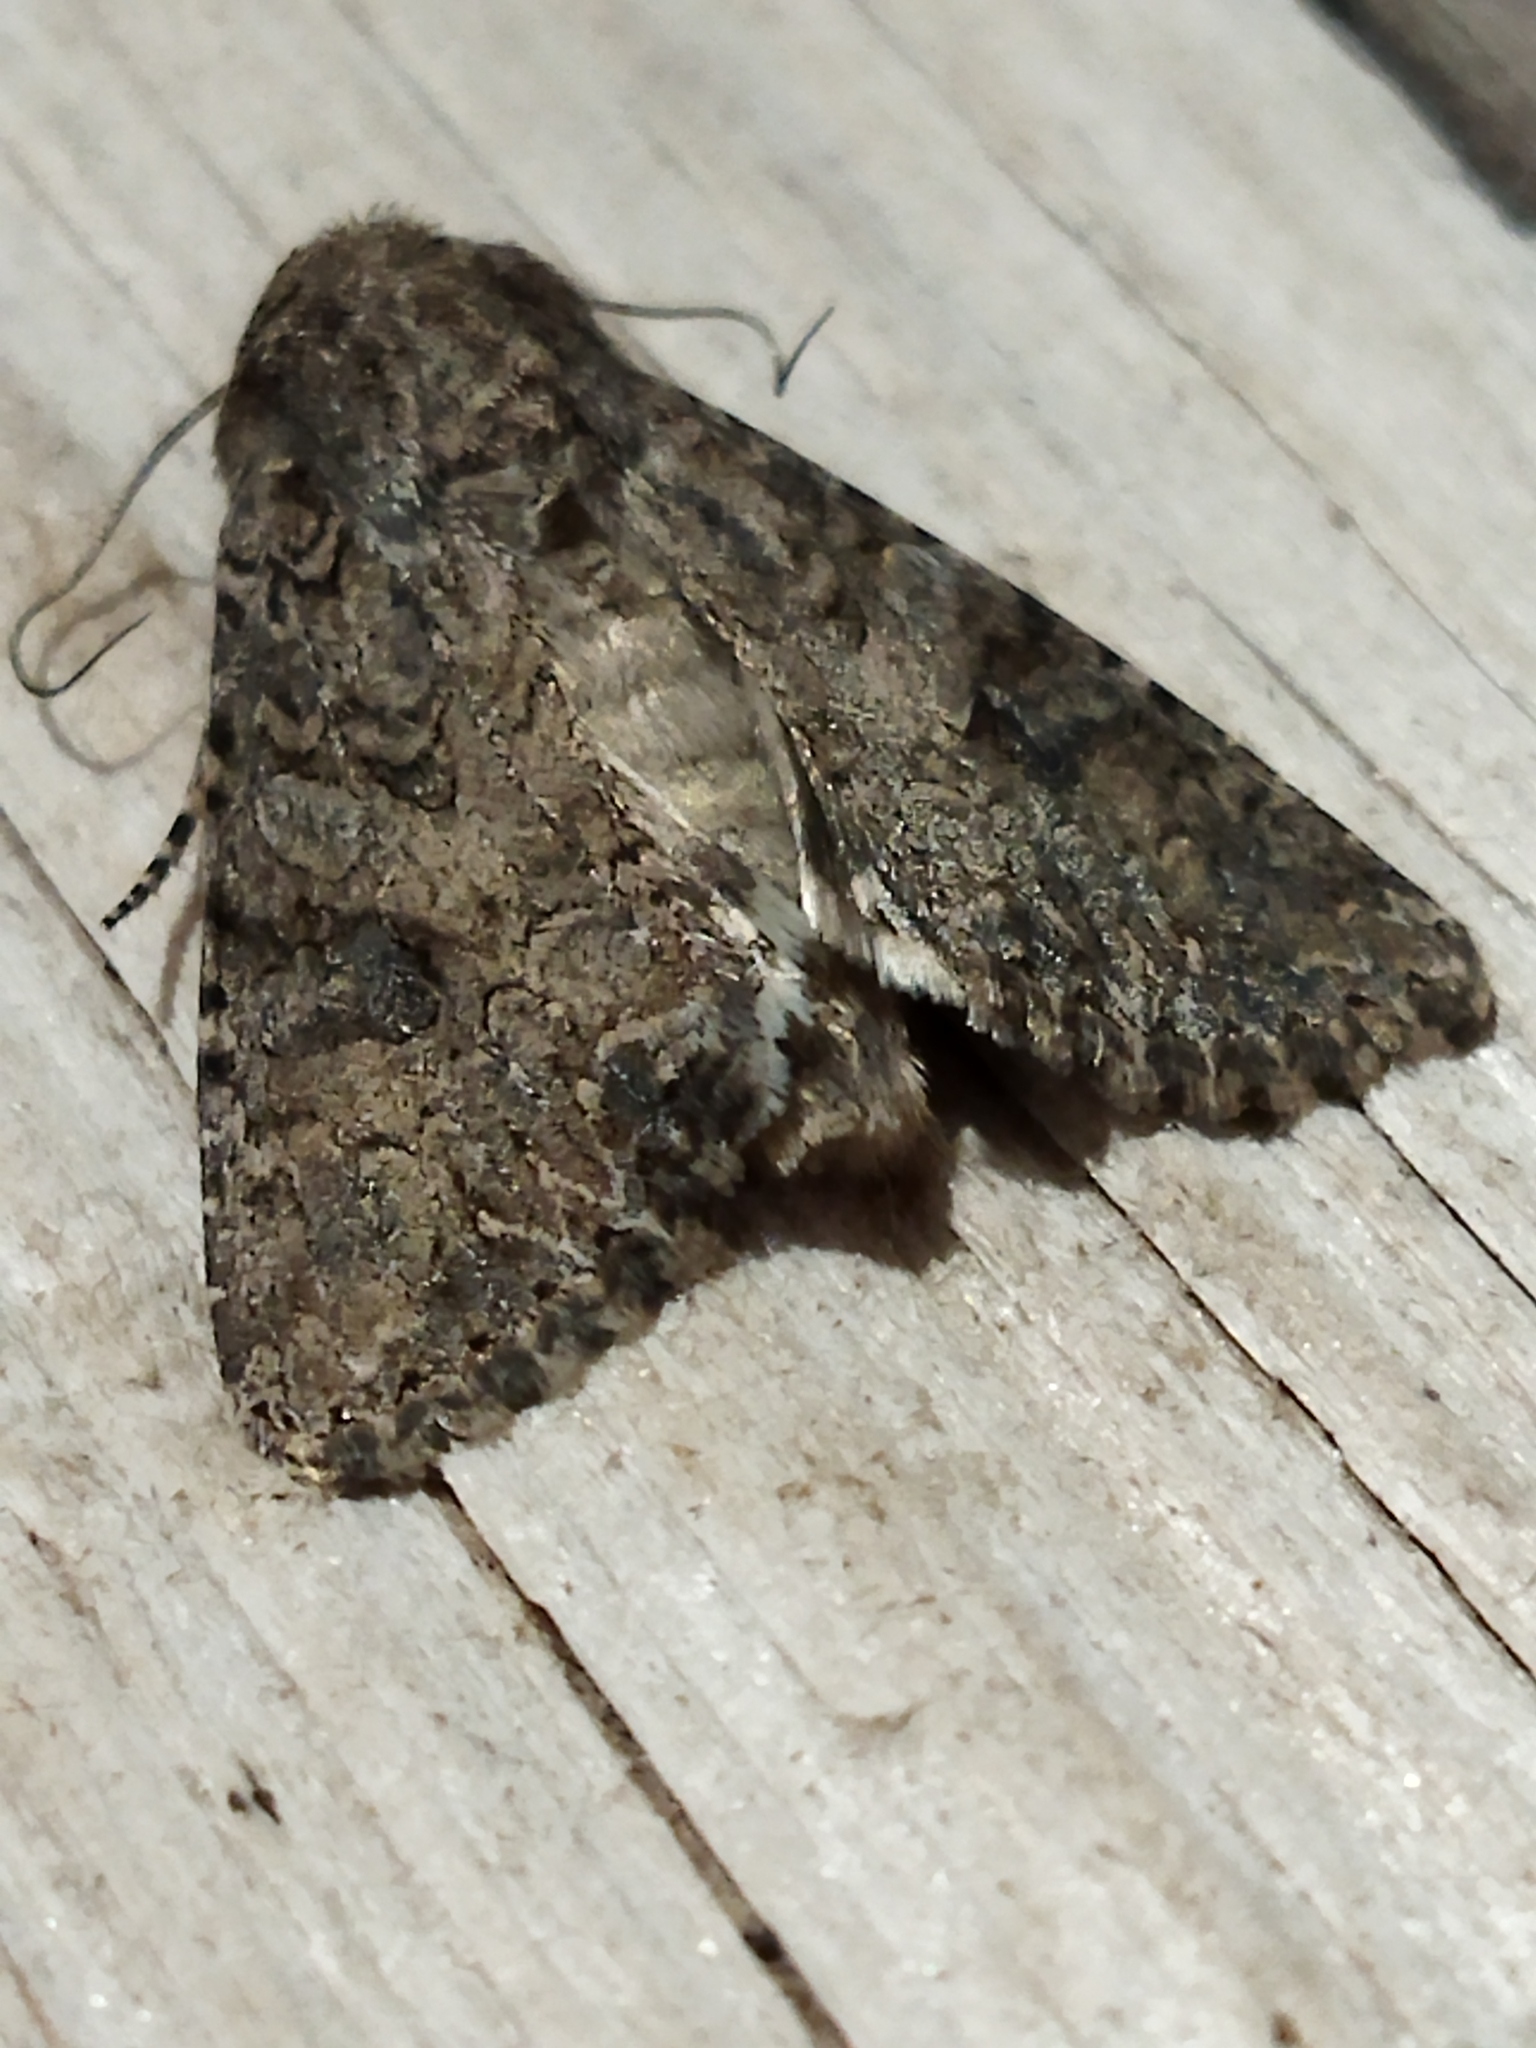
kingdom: Animalia
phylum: Arthropoda
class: Insecta
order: Lepidoptera
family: Noctuidae
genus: Anarta
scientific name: Anarta trifolii
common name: Clover cutworm moth
